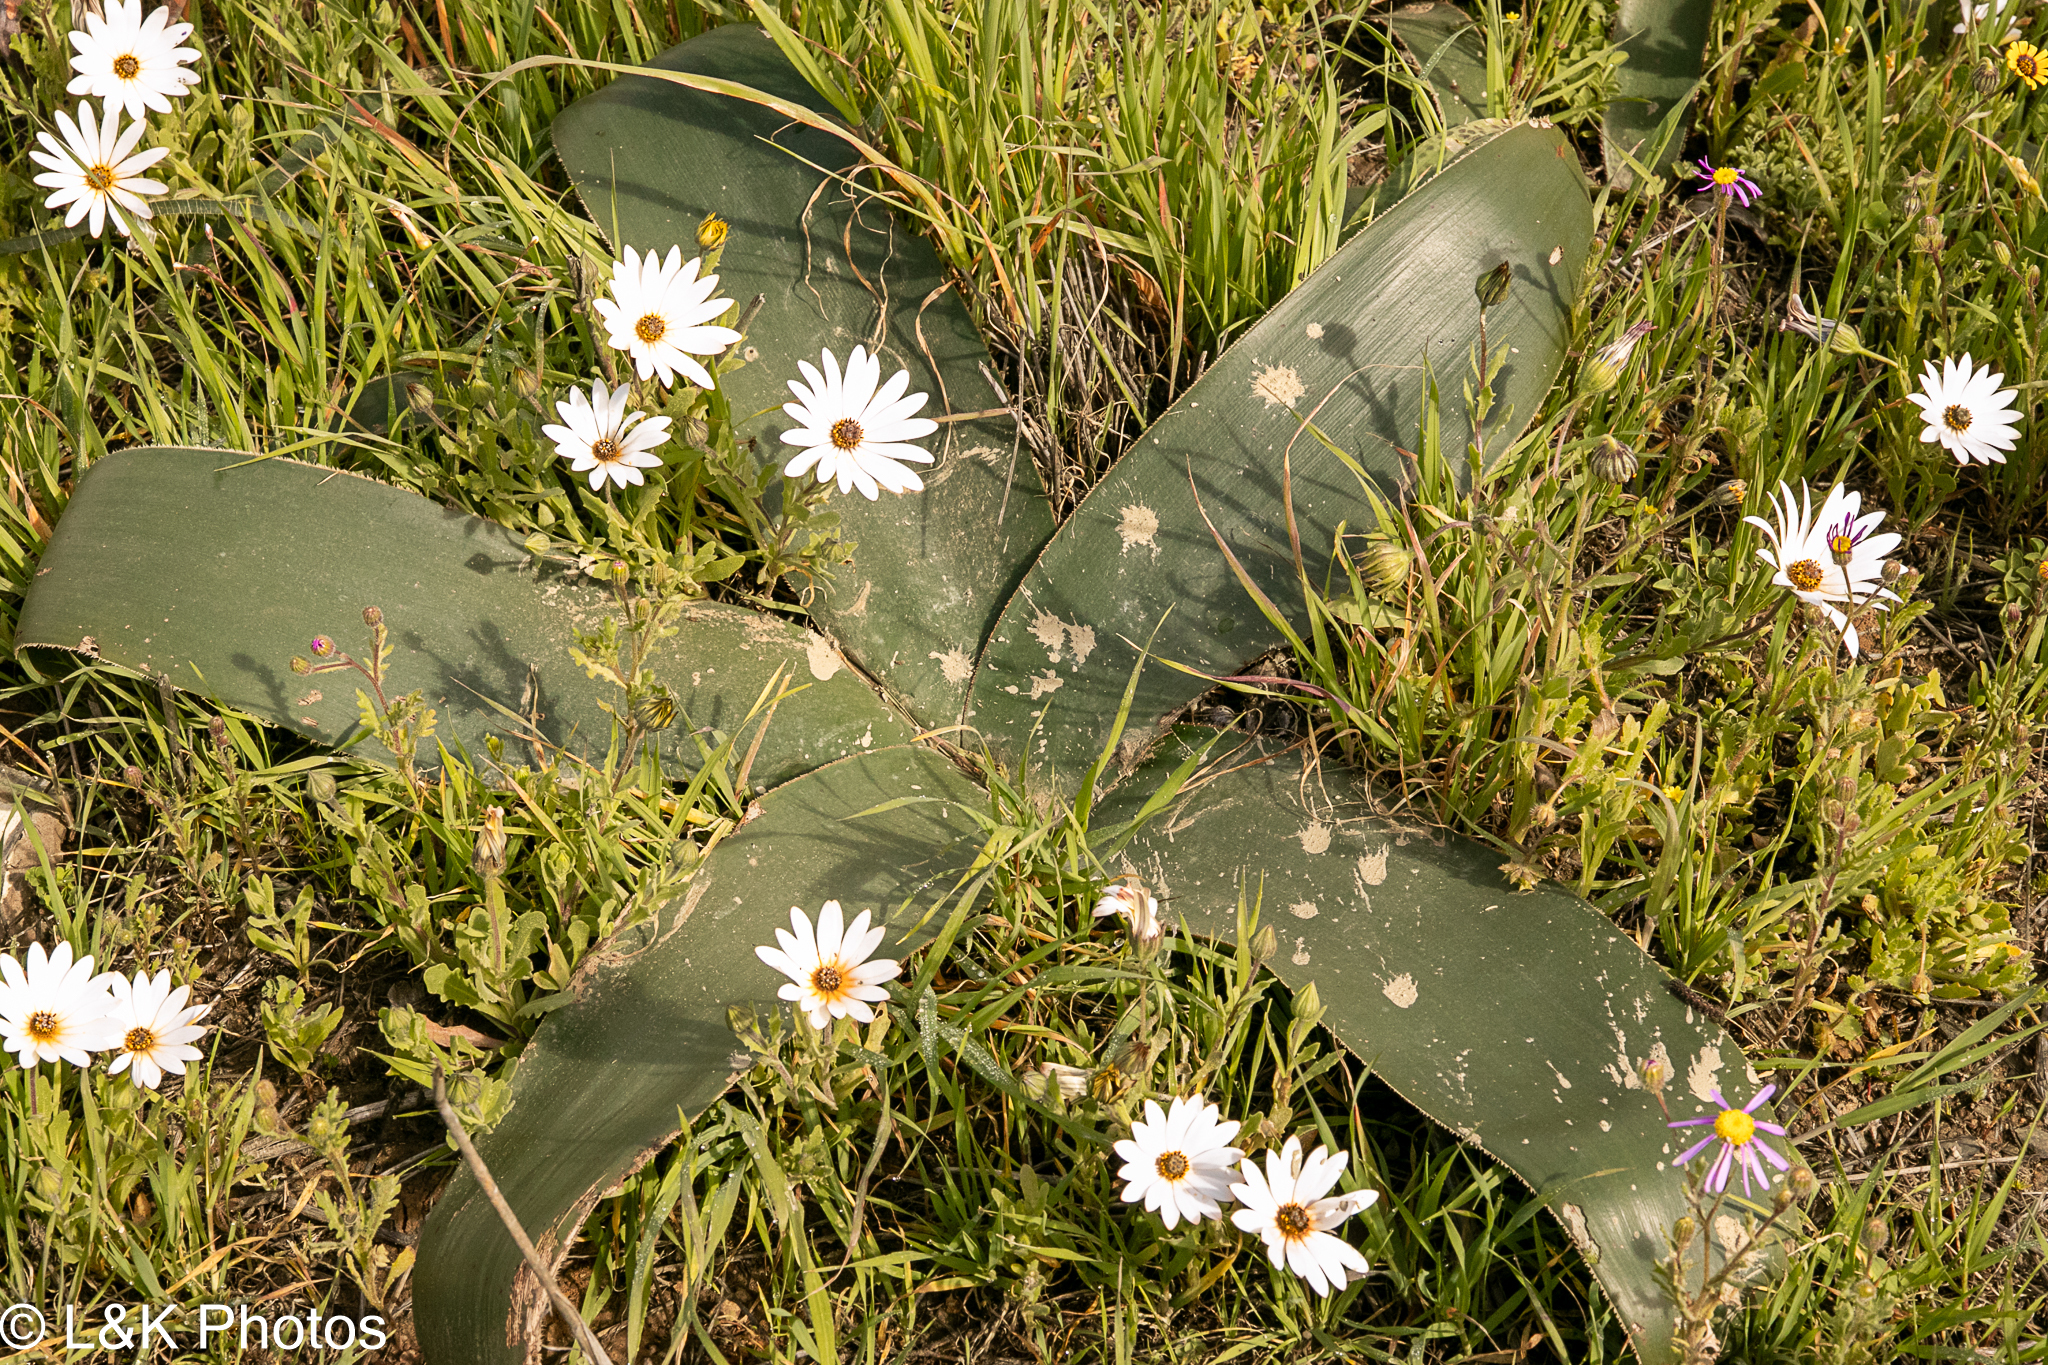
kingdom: Plantae
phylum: Tracheophyta
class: Liliopsida
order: Asparagales
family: Amaryllidaceae
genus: Crossyne
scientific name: Crossyne flava
